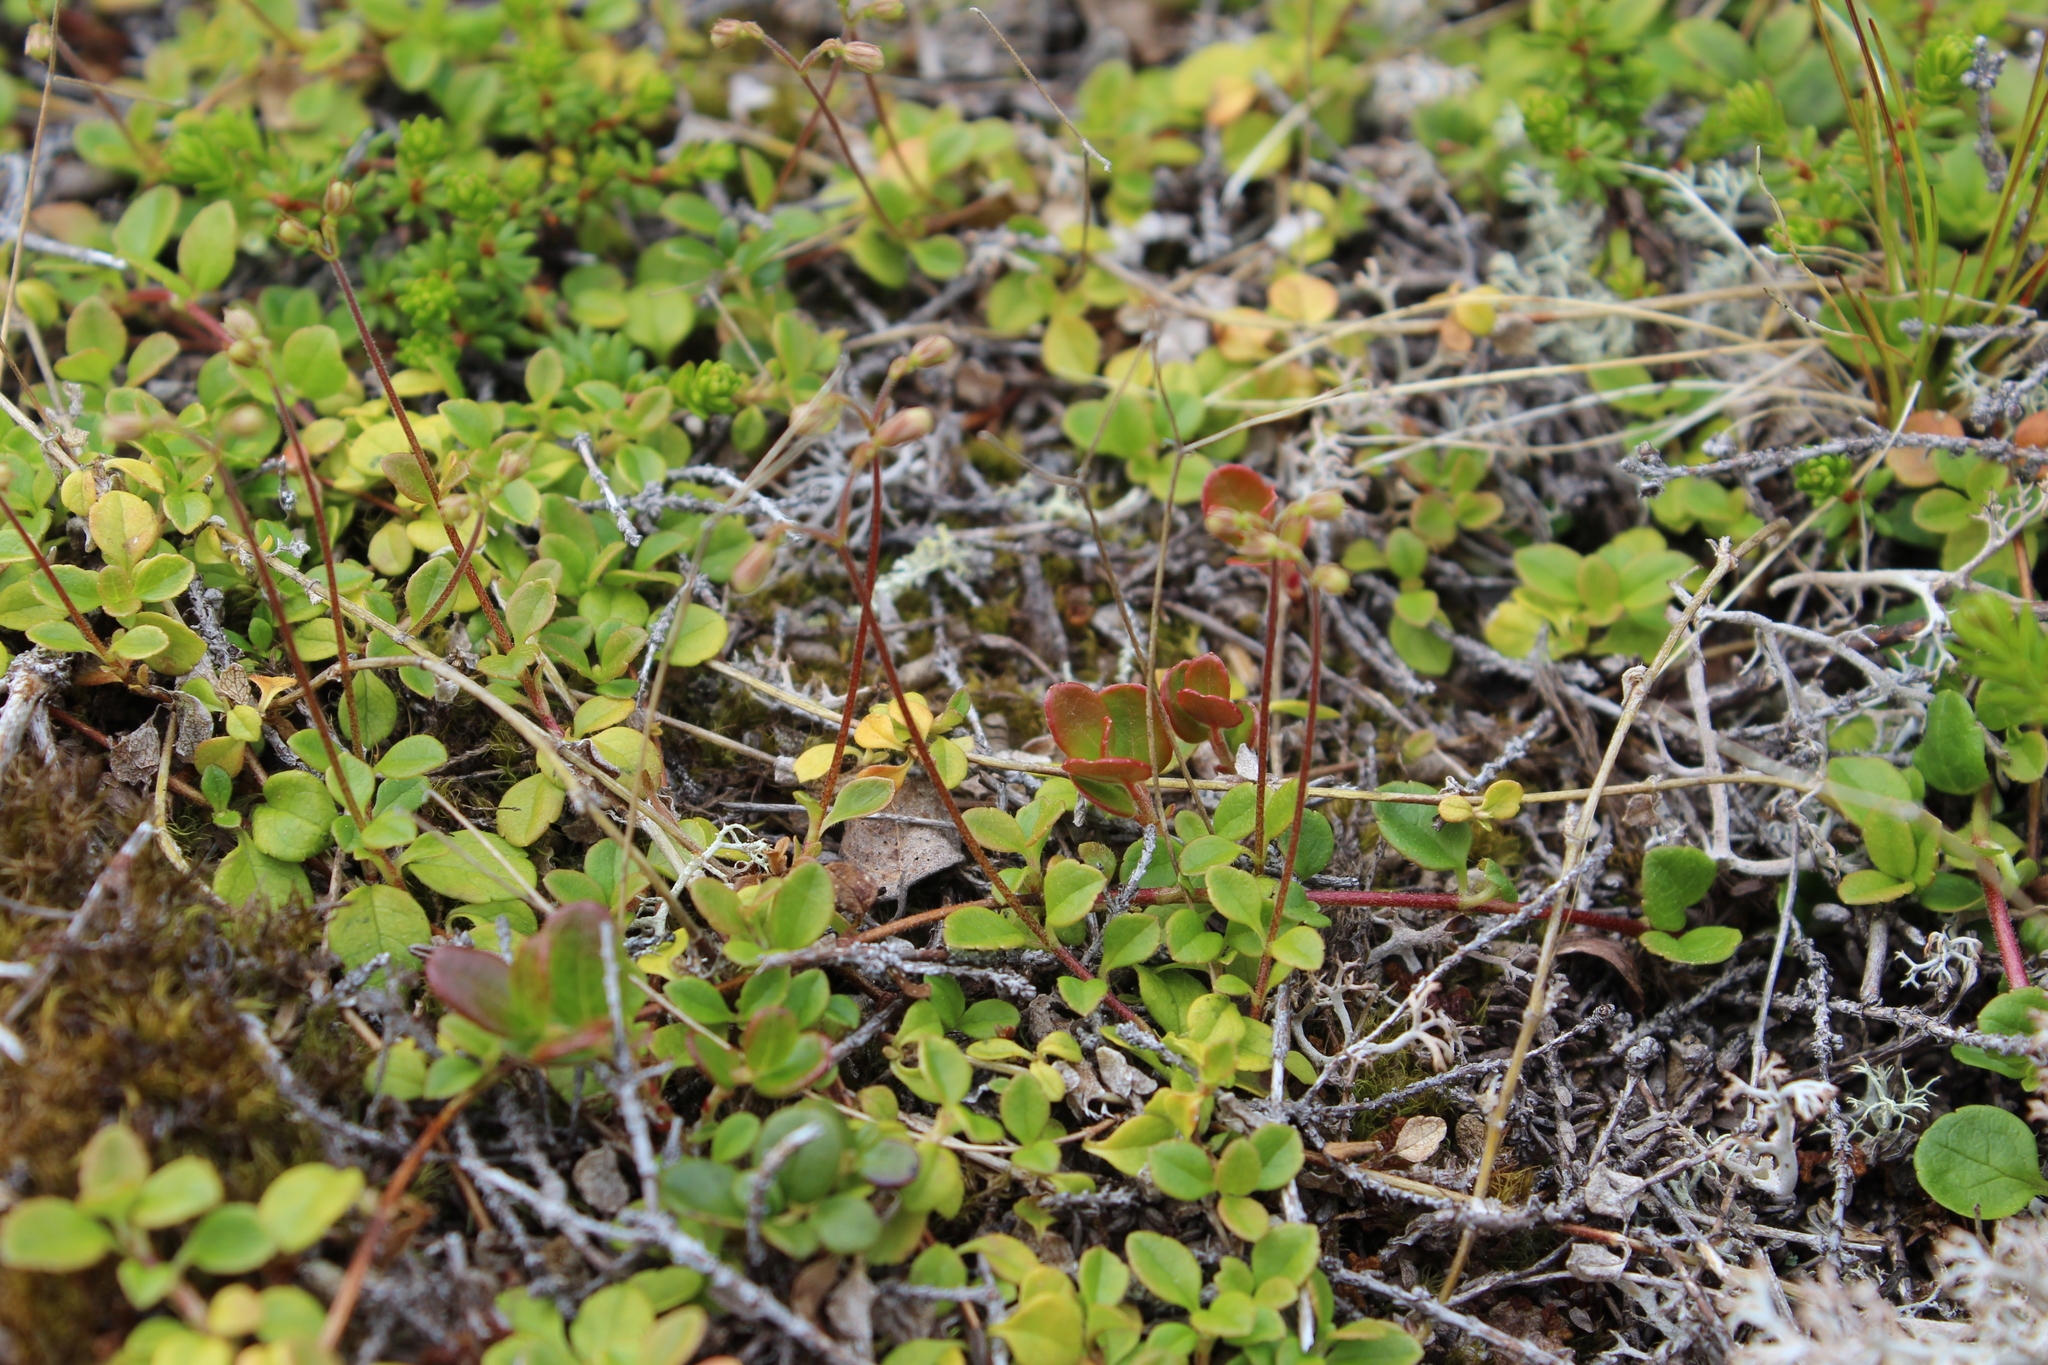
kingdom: Plantae
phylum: Tracheophyta
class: Magnoliopsida
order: Dipsacales
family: Caprifoliaceae
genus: Linnaea
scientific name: Linnaea borealis
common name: Twinflower
